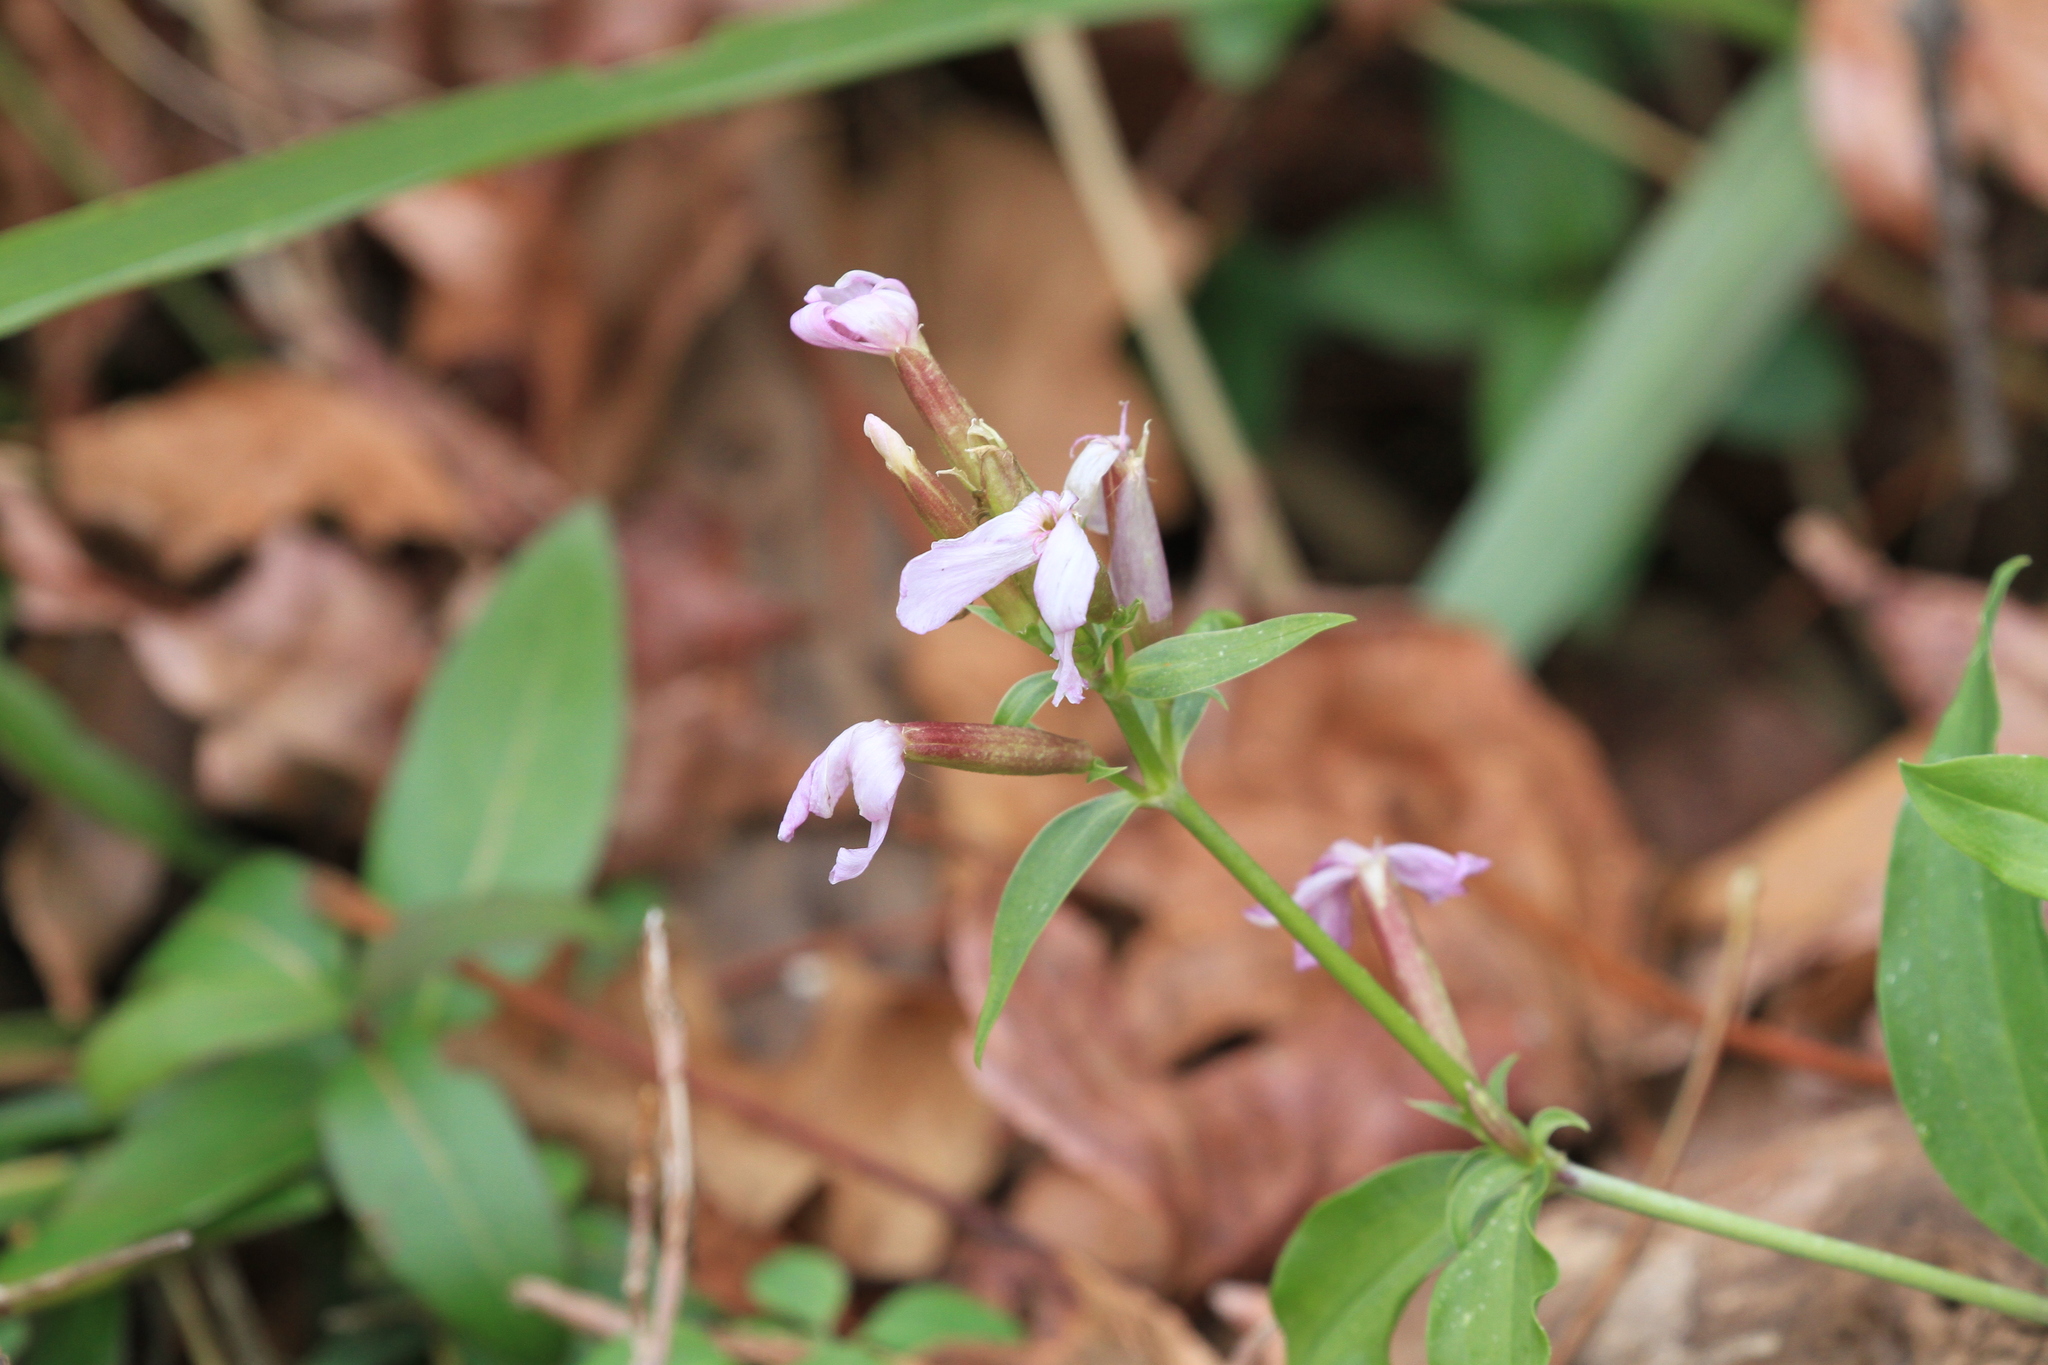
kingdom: Plantae
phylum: Tracheophyta
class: Magnoliopsida
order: Caryophyllales
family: Caryophyllaceae
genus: Saponaria
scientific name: Saponaria officinalis
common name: Soapwort
